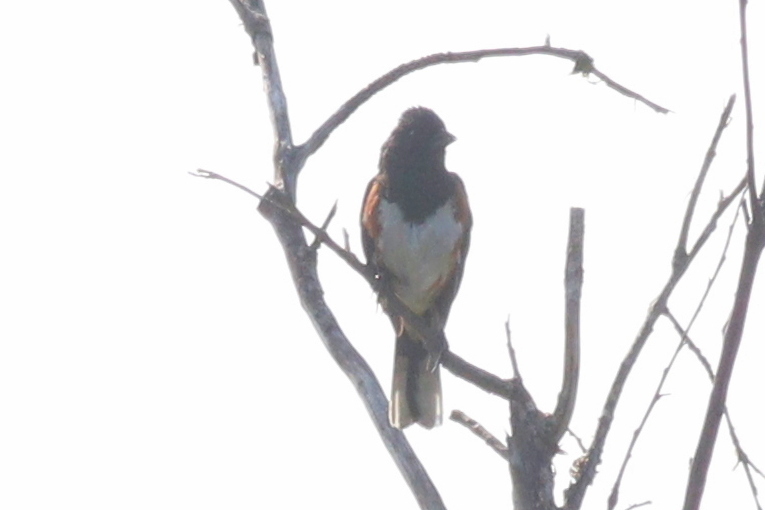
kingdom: Animalia
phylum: Chordata
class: Aves
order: Passeriformes
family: Passerellidae
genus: Pipilo
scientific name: Pipilo erythrophthalmus
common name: Eastern towhee
